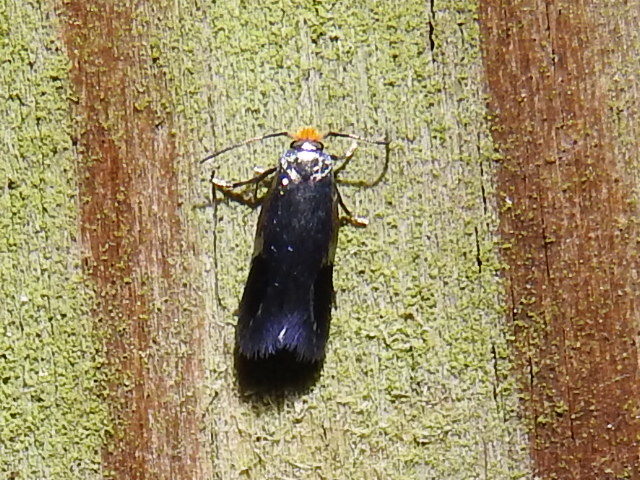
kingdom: Animalia
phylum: Arthropoda
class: Insecta
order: Lepidoptera
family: Nepticulidae
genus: Stigmella
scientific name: Stigmella resplendensella
